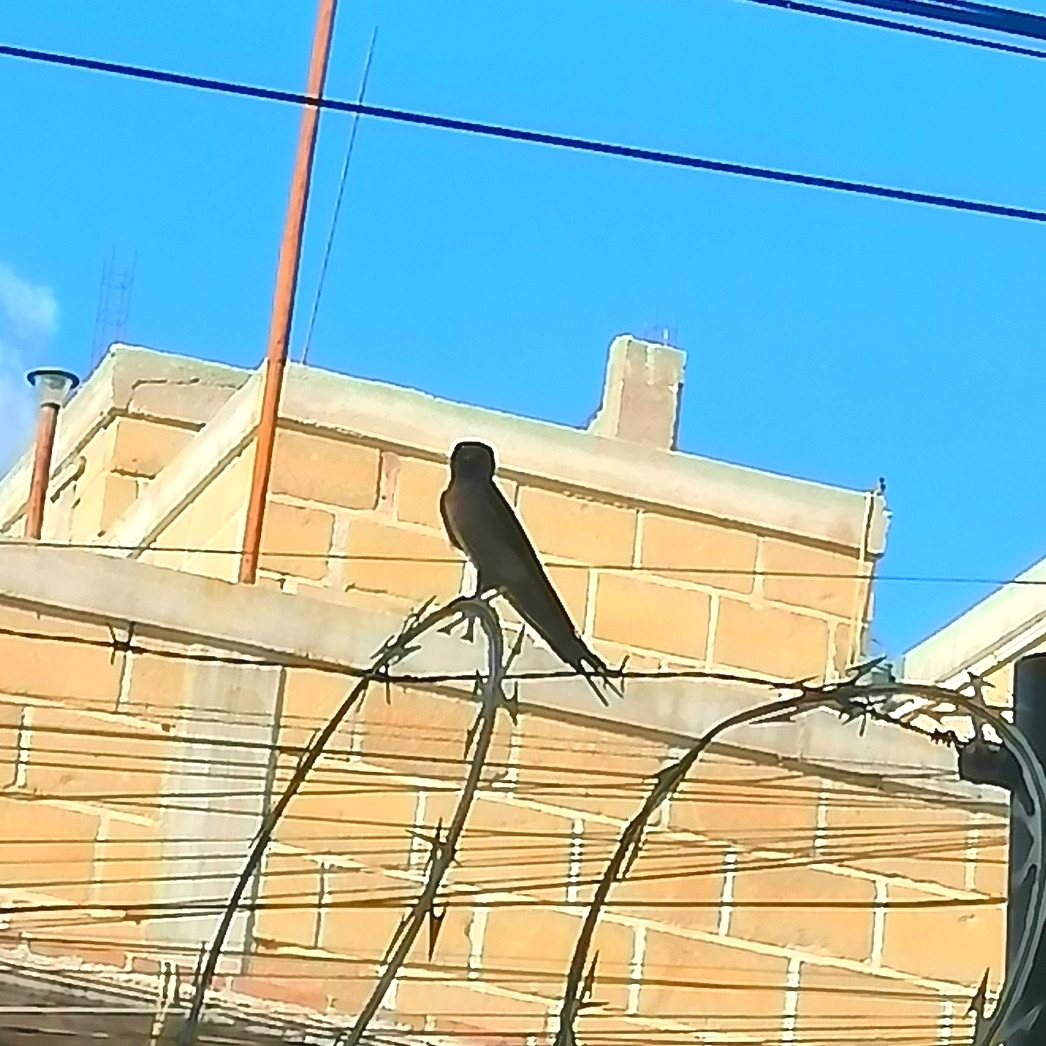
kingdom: Animalia
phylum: Chordata
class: Aves
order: Passeriformes
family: Hirundinidae
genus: Hirundo
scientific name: Hirundo rustica
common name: Barn swallow
